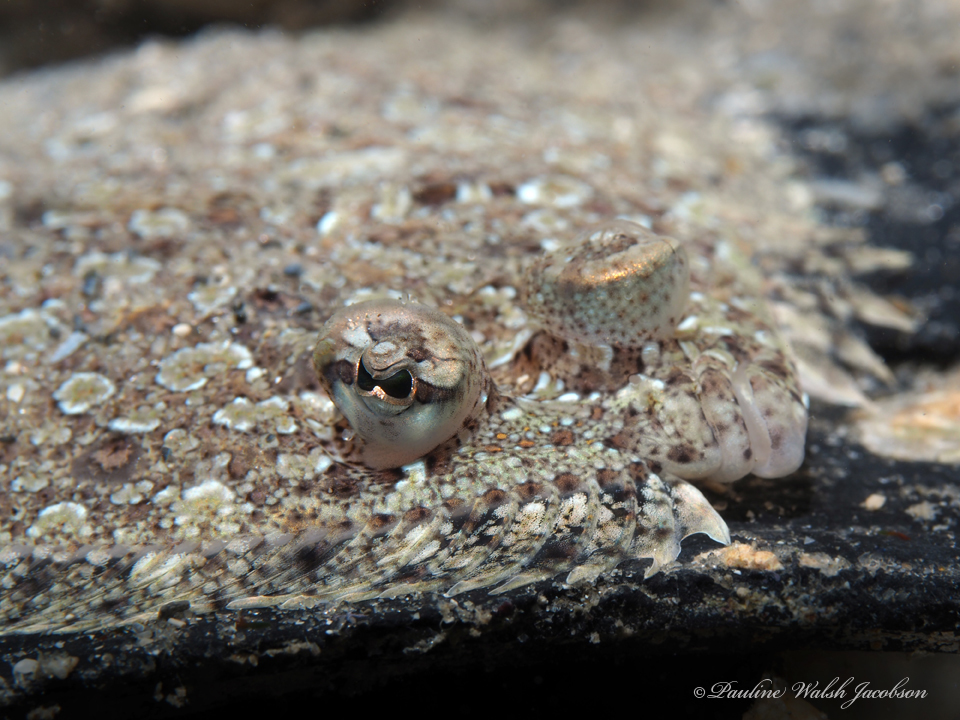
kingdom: Animalia
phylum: Chordata
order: Pleuronectiformes
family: Bothidae
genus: Bothus
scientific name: Bothus ocellatus
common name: Eyed flounder
